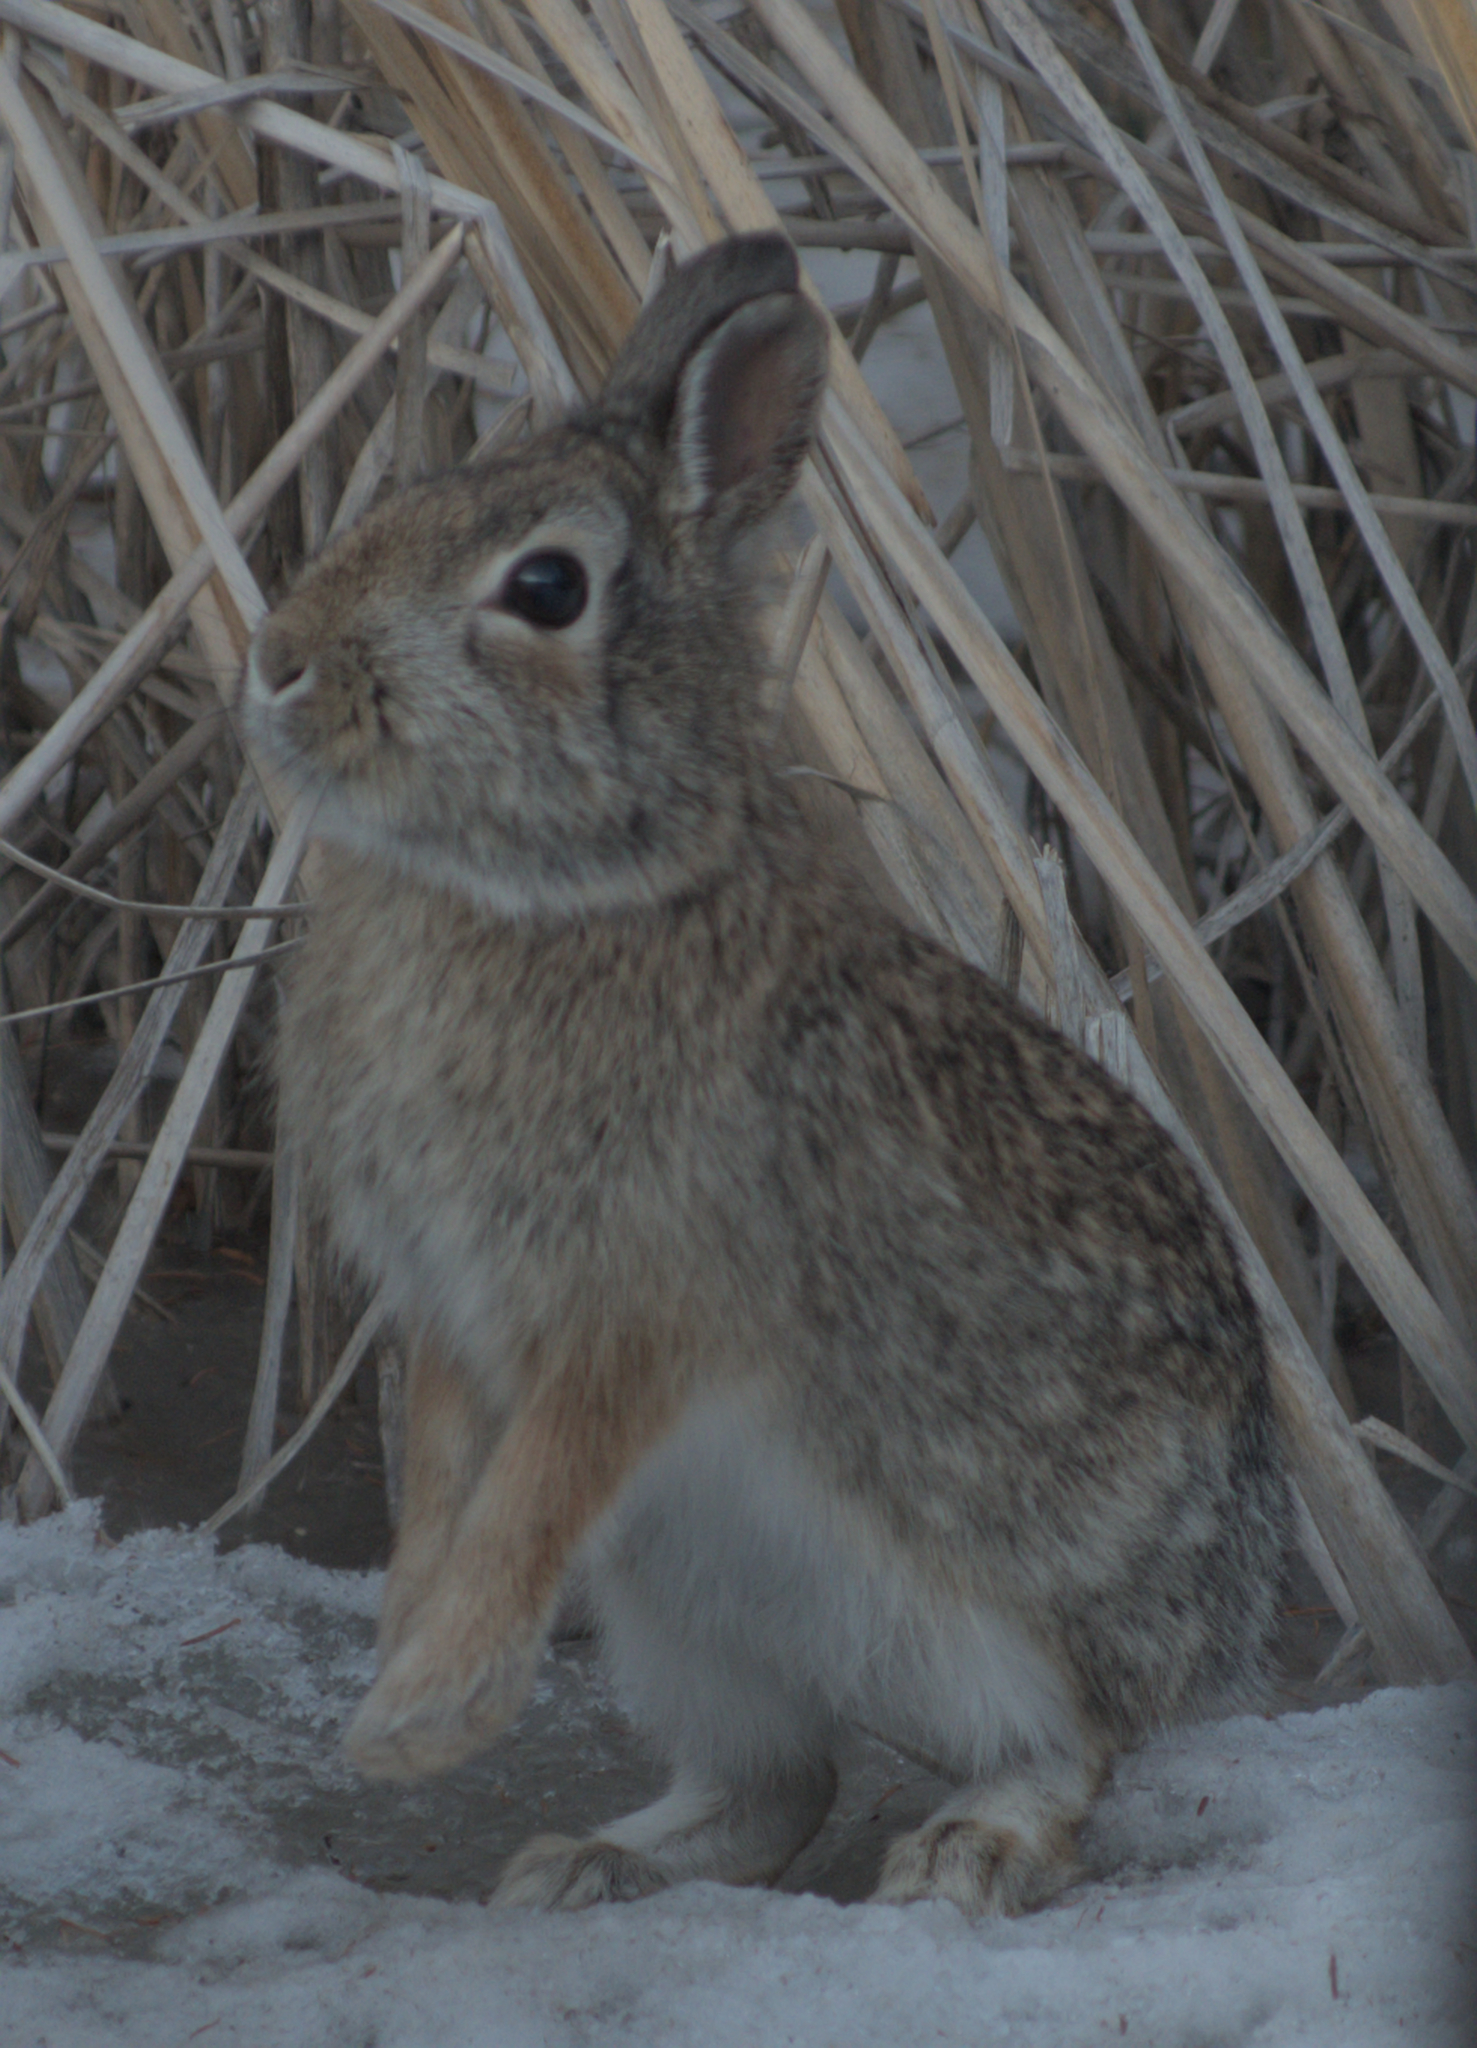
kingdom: Animalia
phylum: Chordata
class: Mammalia
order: Lagomorpha
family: Leporidae
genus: Sylvilagus
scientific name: Sylvilagus floridanus
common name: Eastern cottontail
